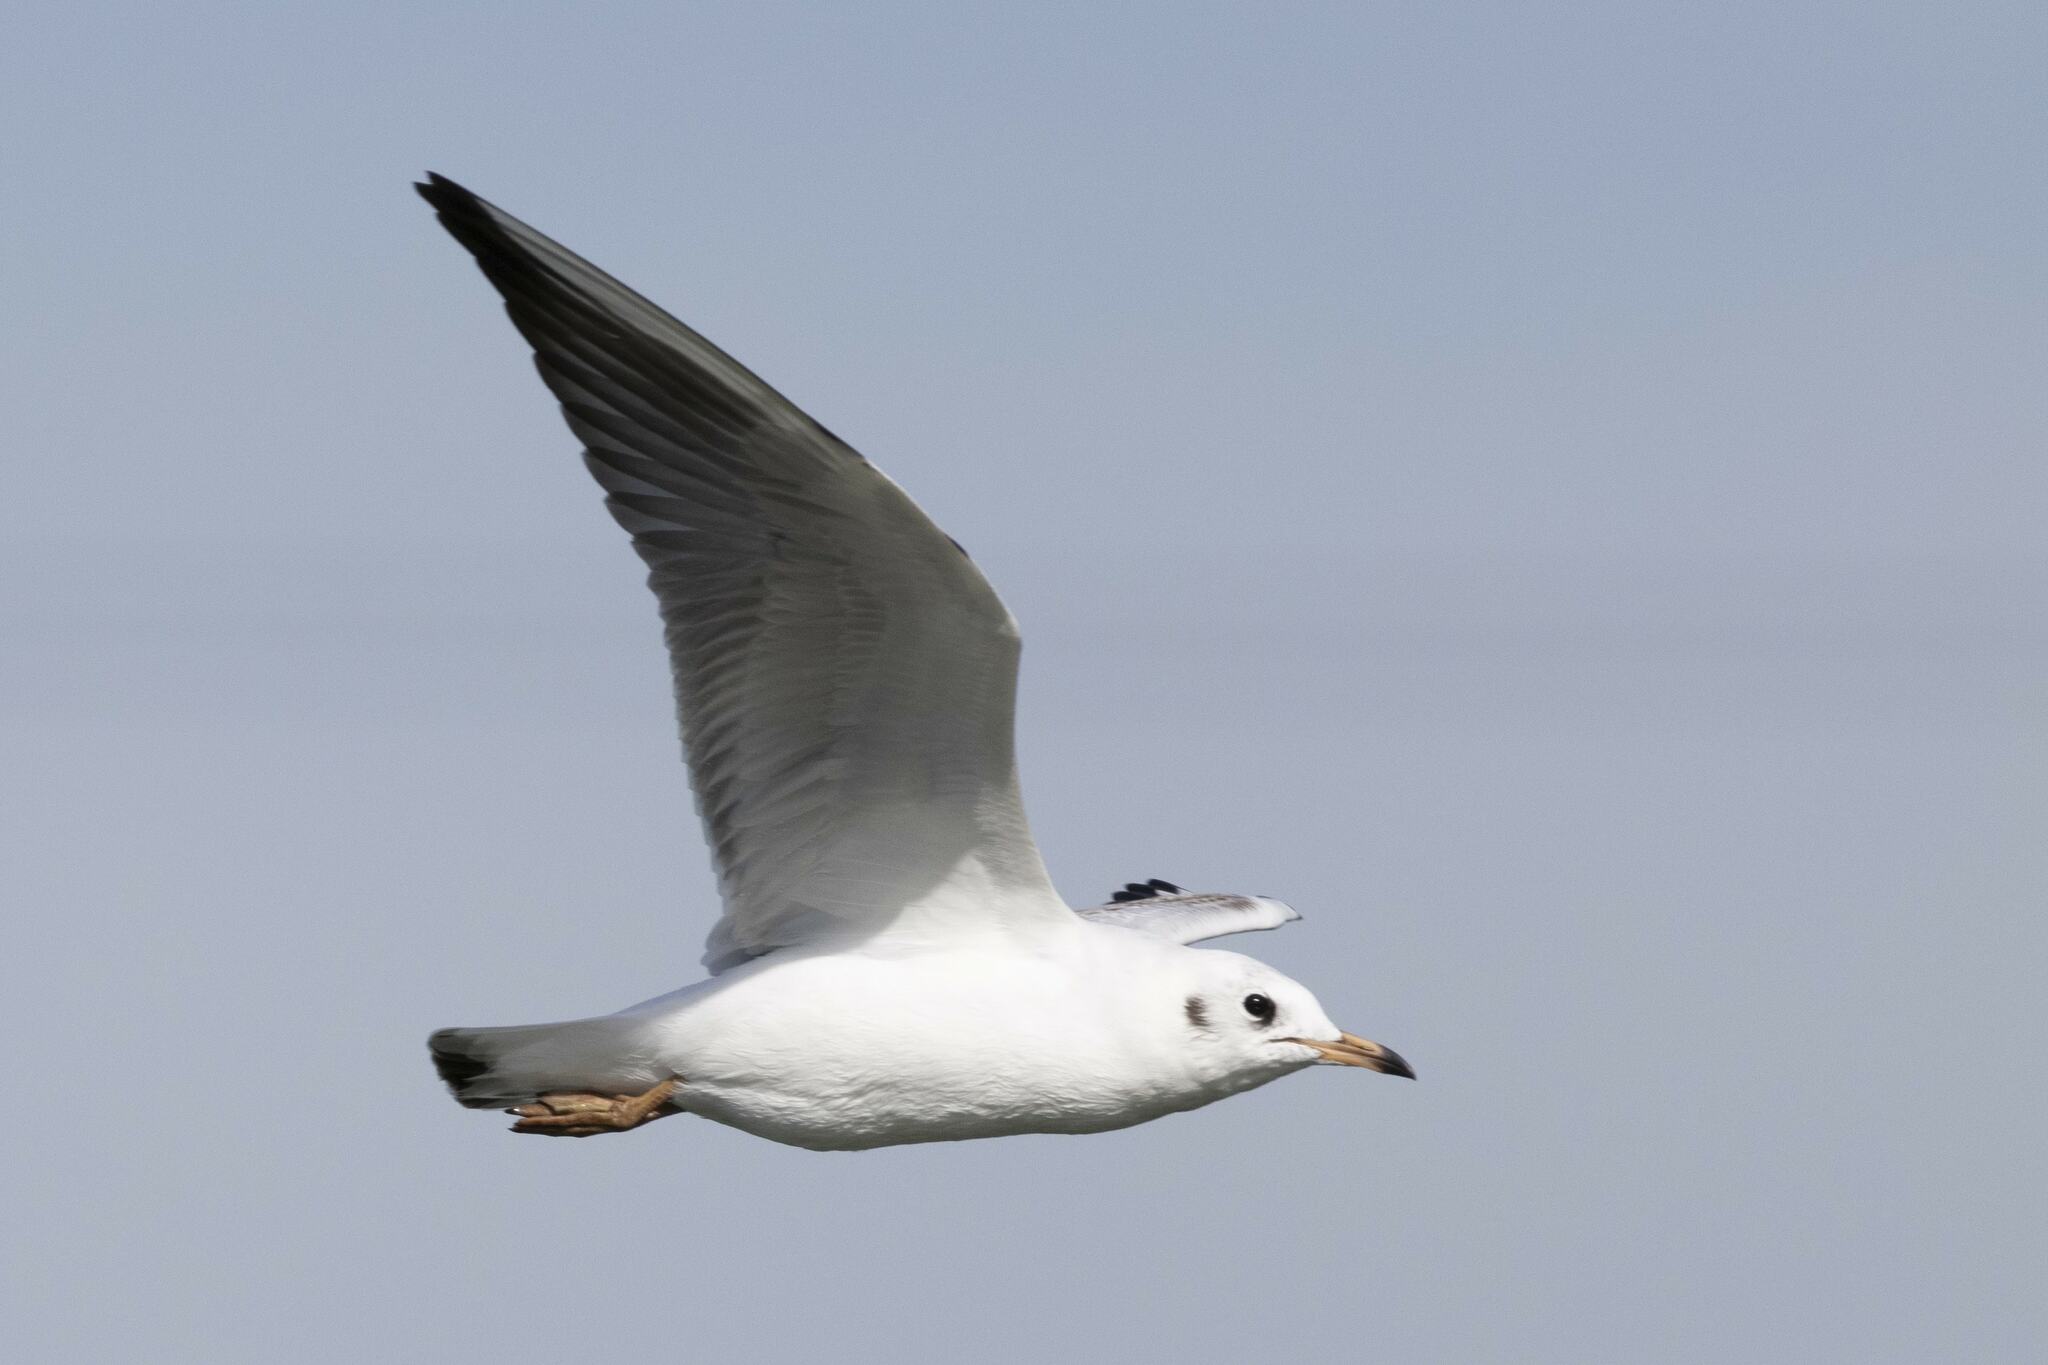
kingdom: Animalia
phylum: Chordata
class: Aves
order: Charadriiformes
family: Laridae
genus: Chroicocephalus
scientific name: Chroicocephalus ridibundus
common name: Black-headed gull
